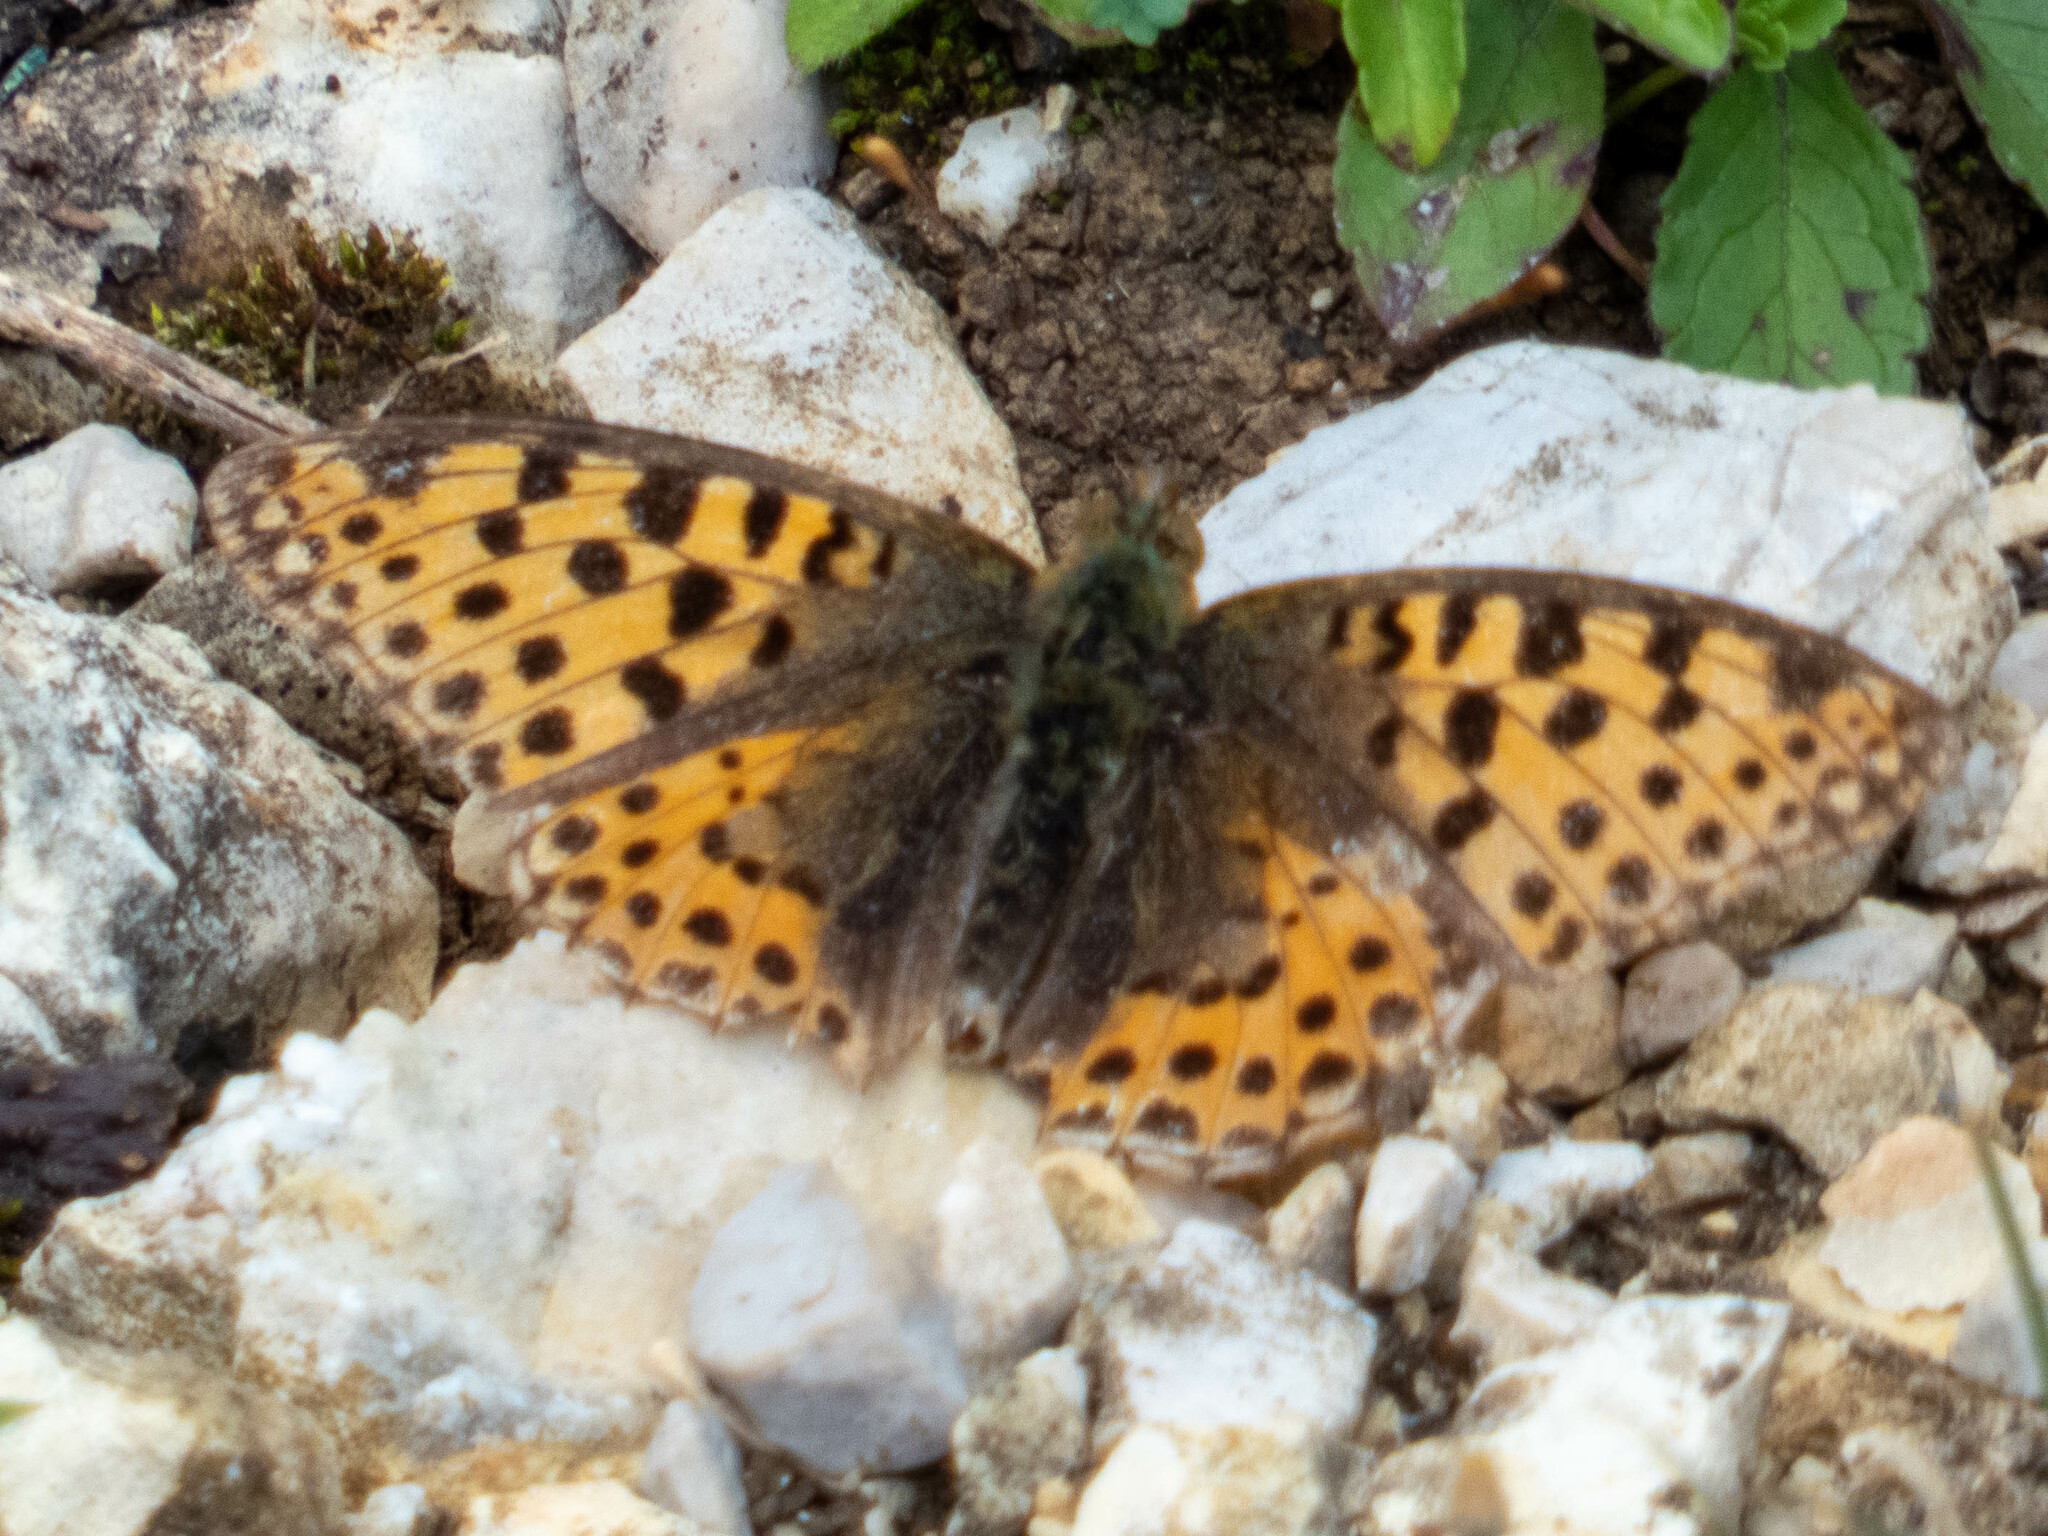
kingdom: Animalia
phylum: Arthropoda
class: Insecta
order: Lepidoptera
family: Nymphalidae
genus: Issoria
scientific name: Issoria lathonia
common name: Queen of spain fritillary
